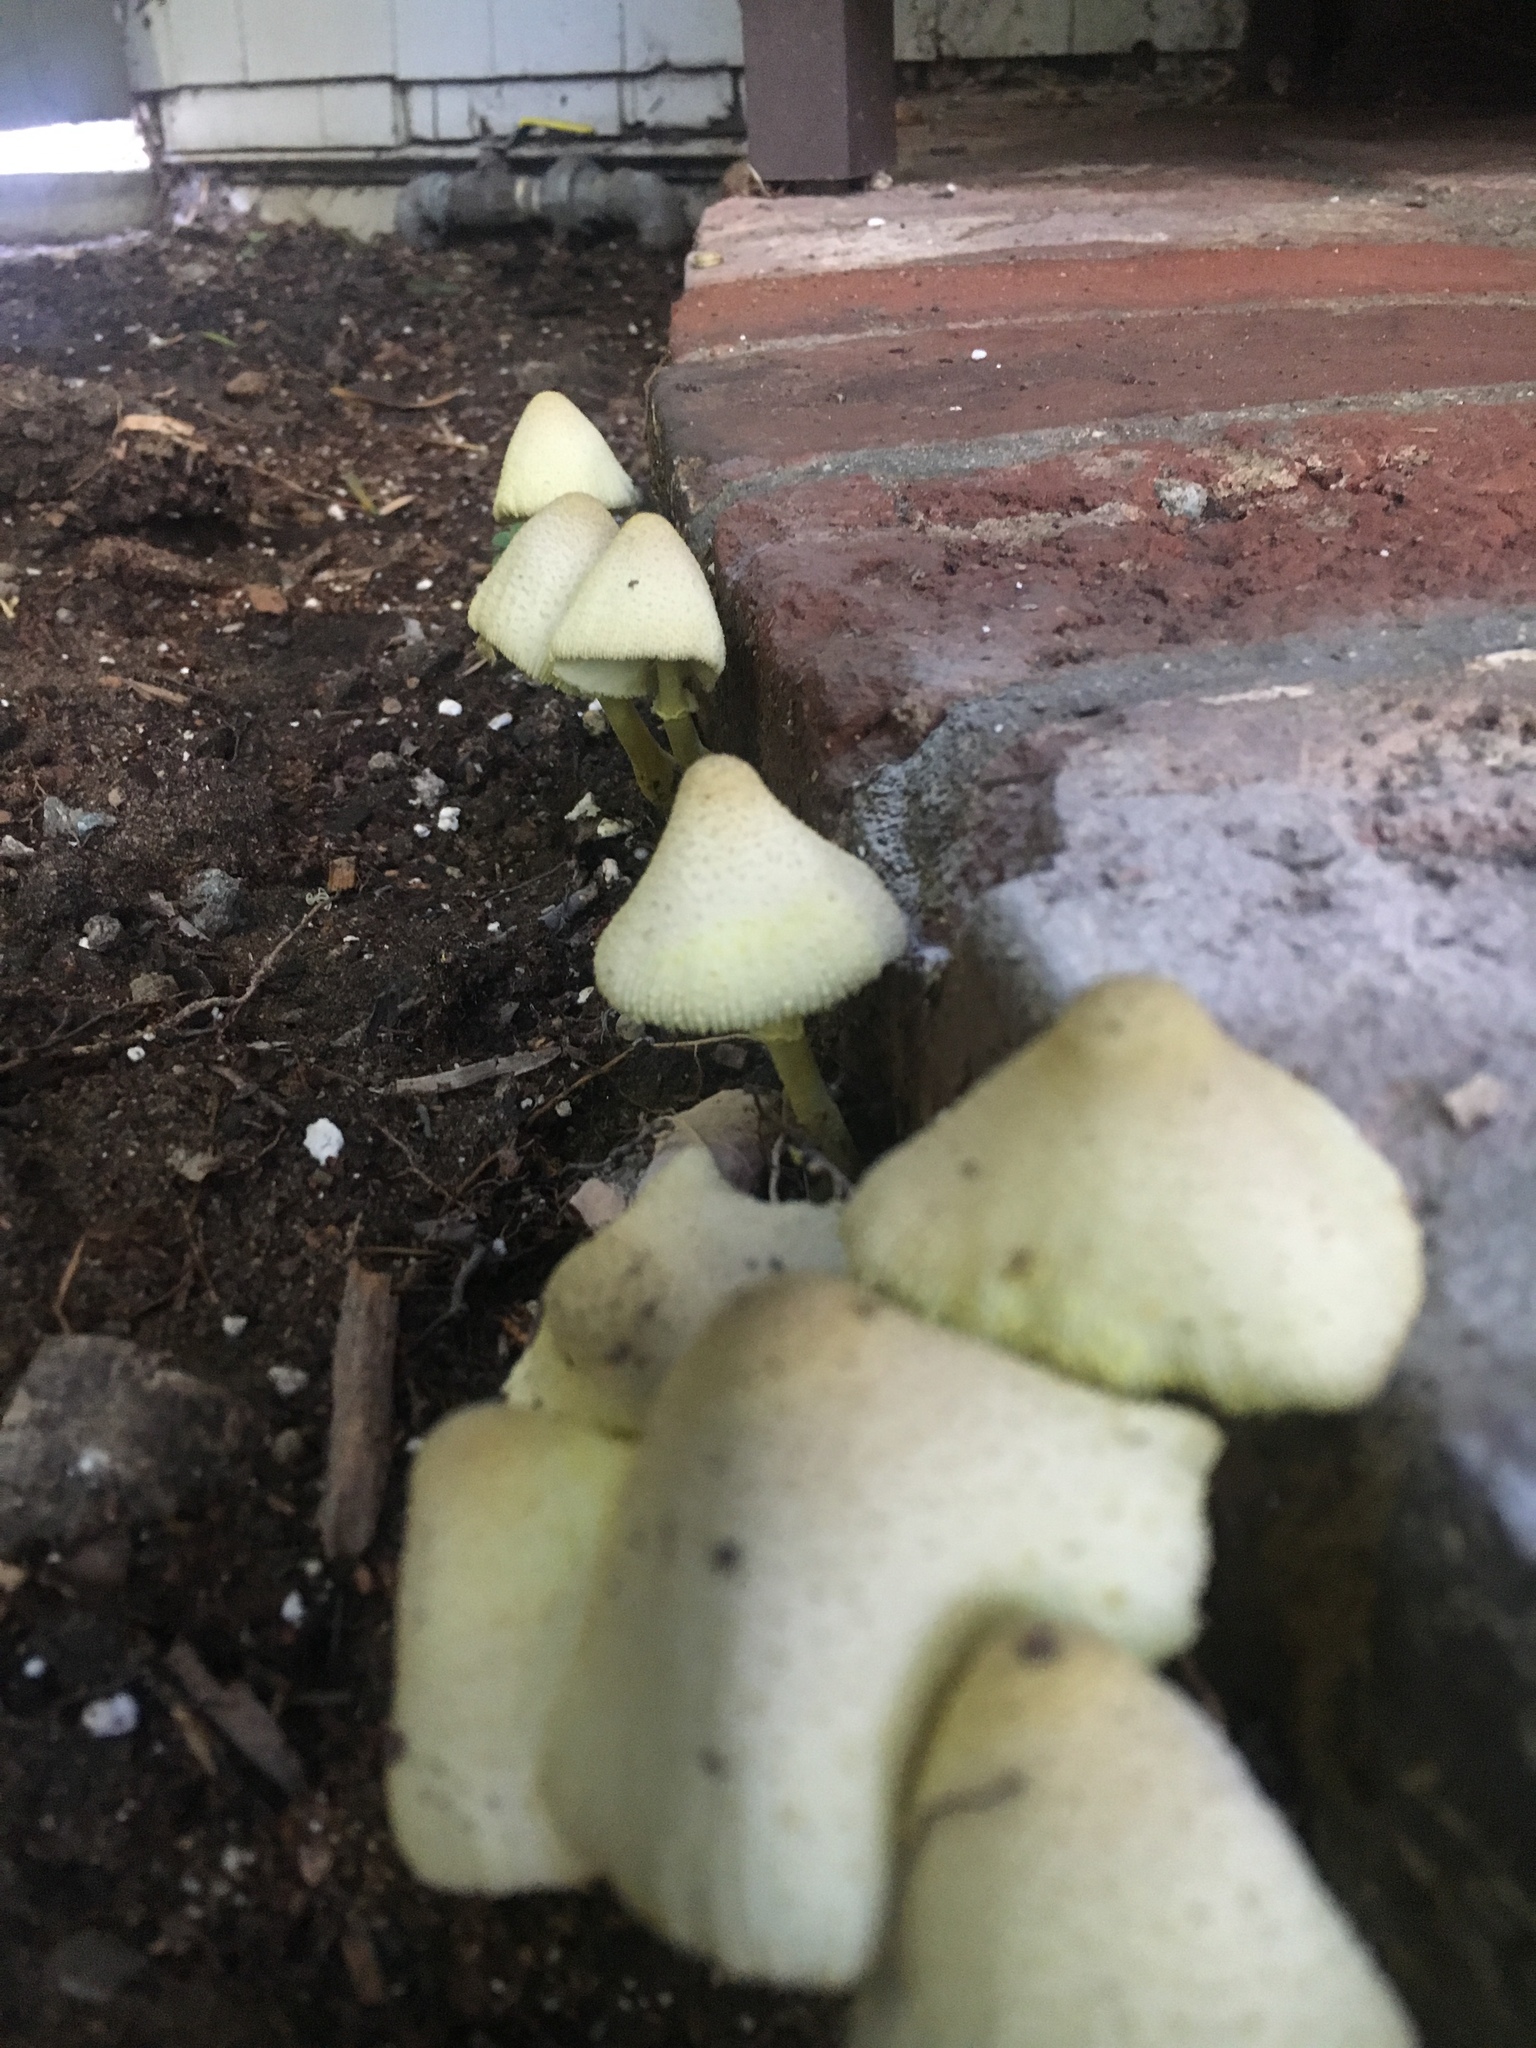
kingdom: Fungi
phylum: Basidiomycota
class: Agaricomycetes
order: Agaricales
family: Agaricaceae
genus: Leucocoprinus
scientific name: Leucocoprinus birnbaumii
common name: Plantpot dapperling
